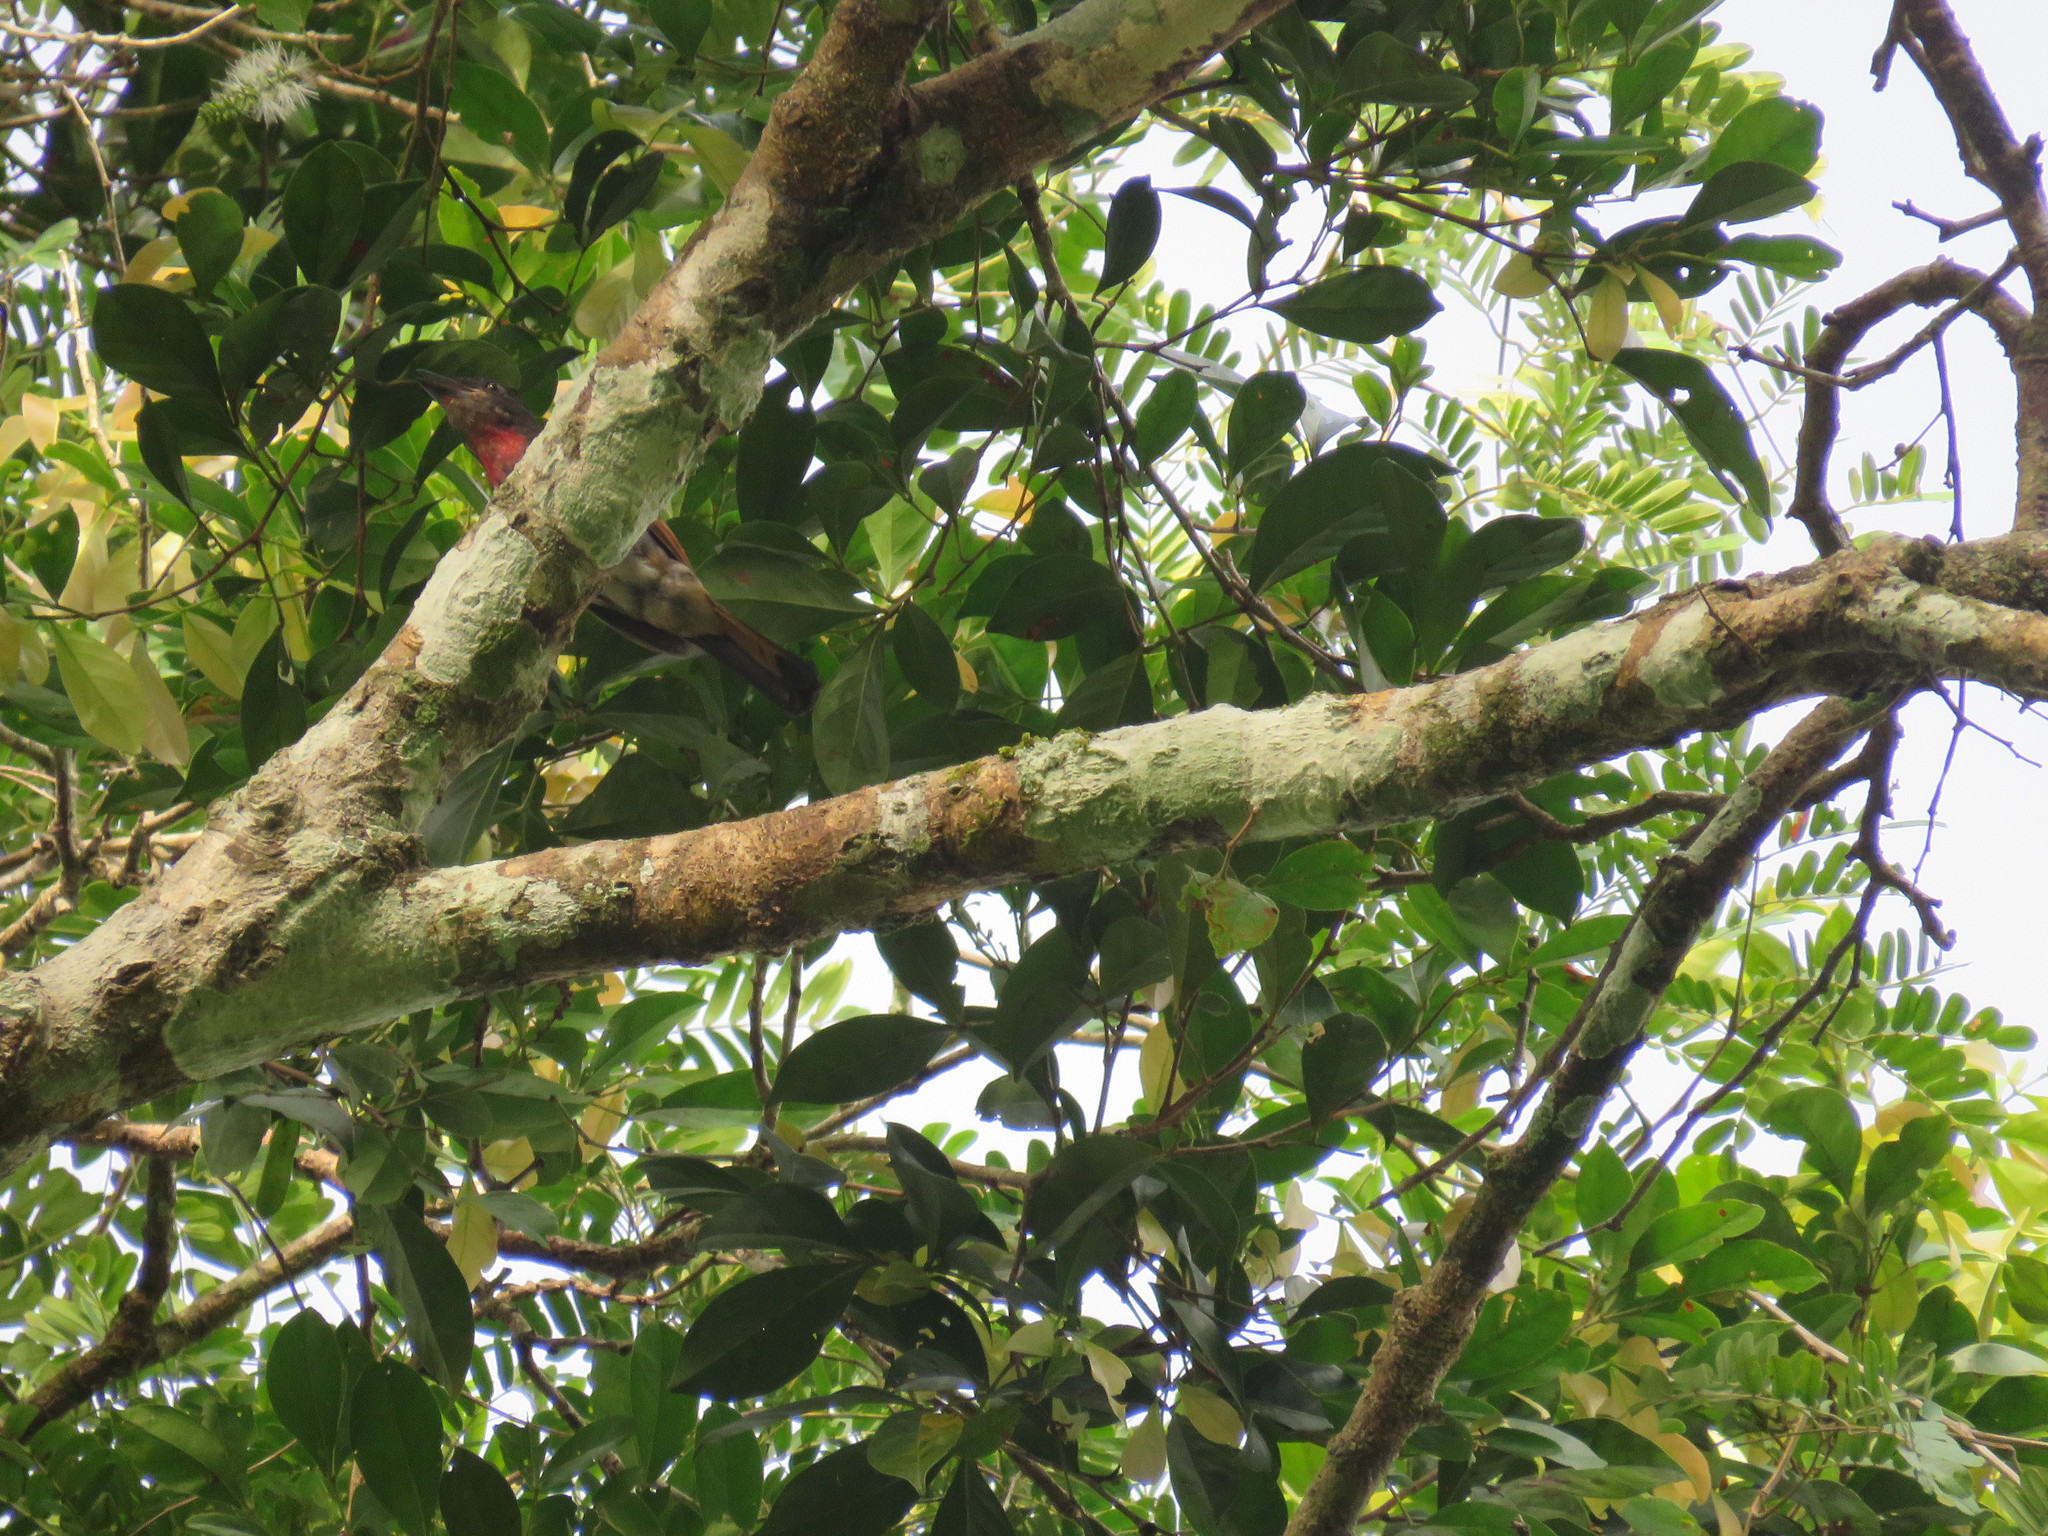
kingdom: Animalia
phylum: Chordata
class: Aves
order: Passeriformes
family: Cotingidae
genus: Pachyramphus
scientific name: Pachyramphus minor
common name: Pink-throated becard
